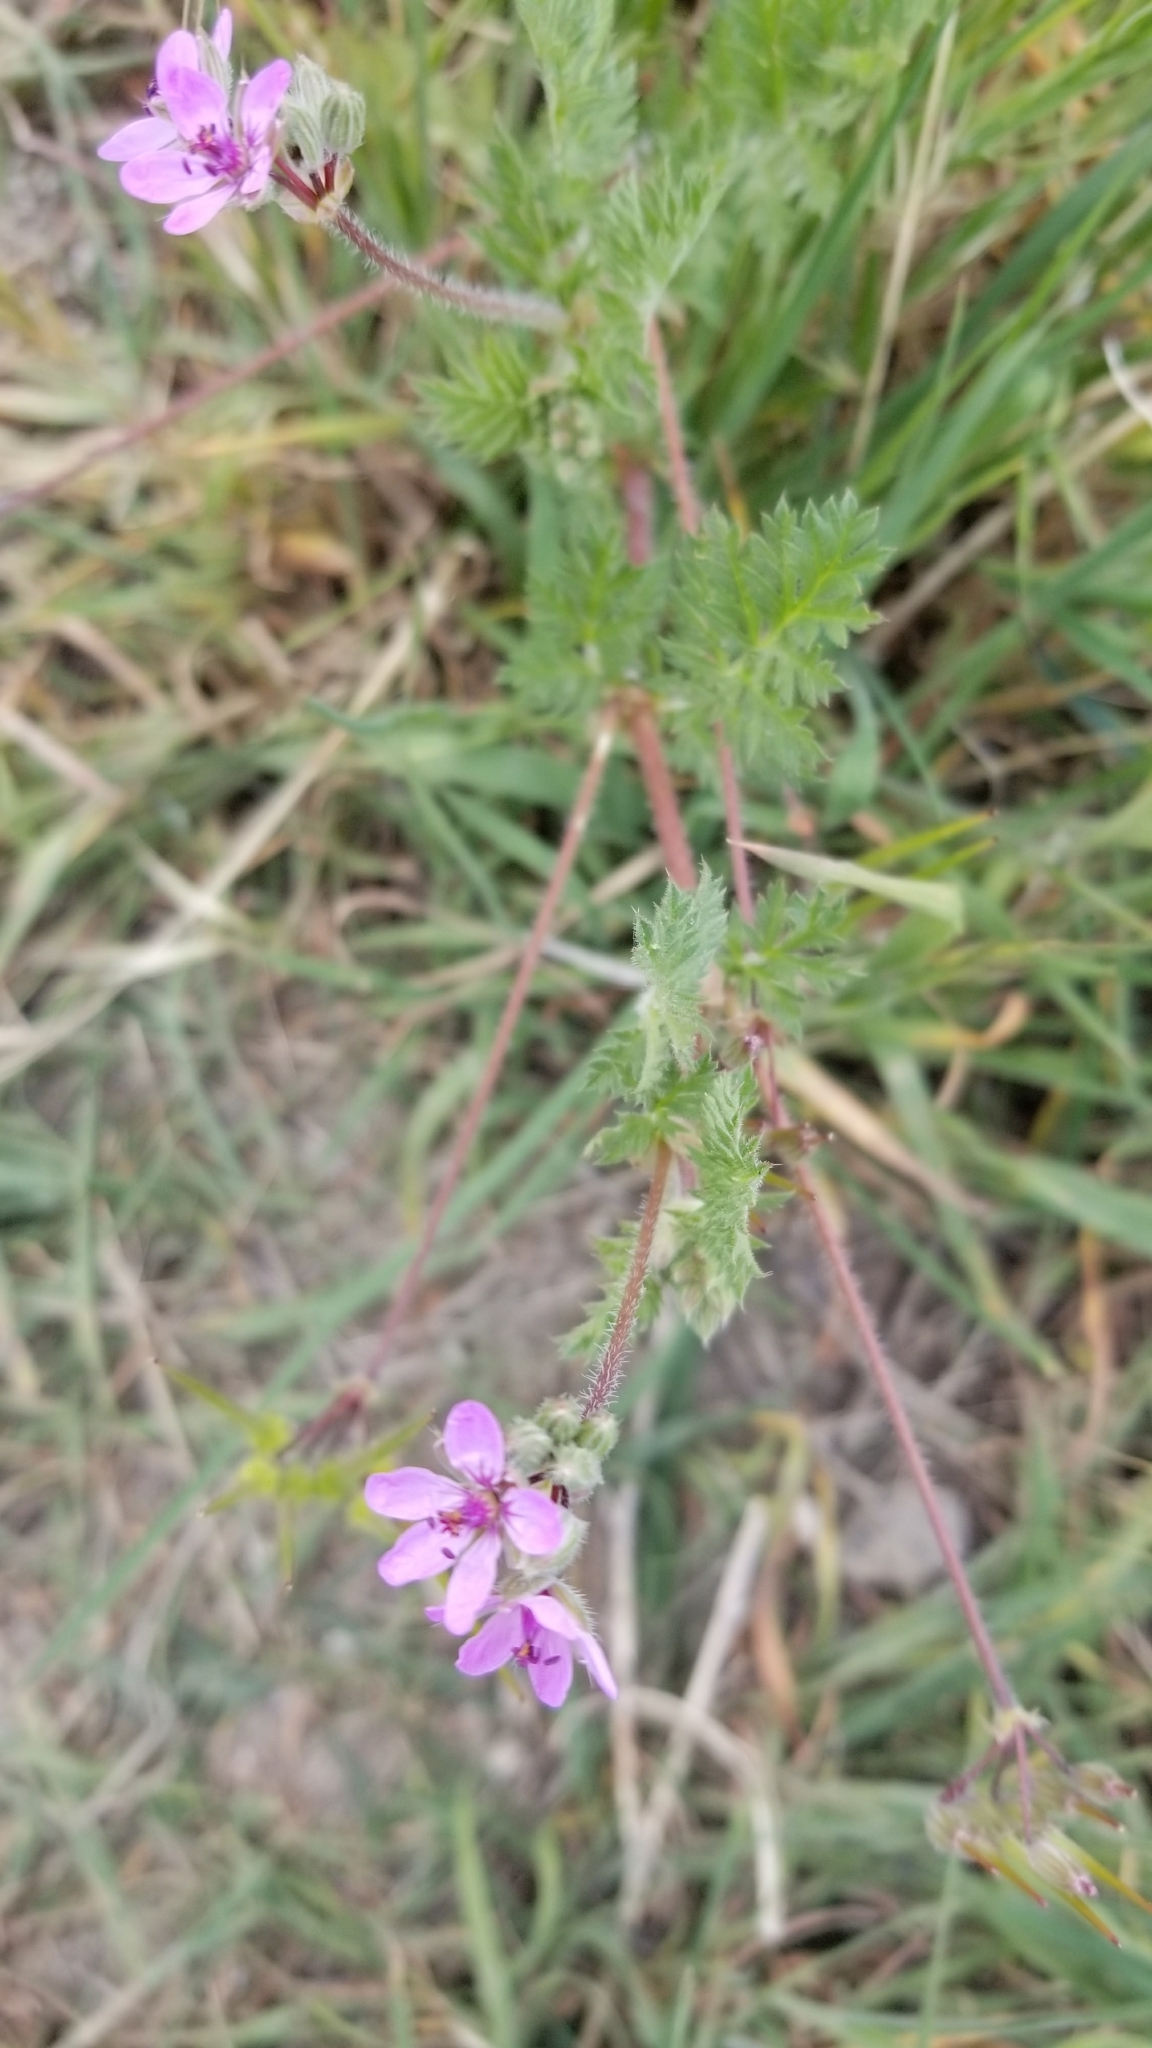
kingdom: Plantae
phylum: Tracheophyta
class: Magnoliopsida
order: Geraniales
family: Geraniaceae
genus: Erodium
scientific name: Erodium cicutarium
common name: Common stork's-bill
